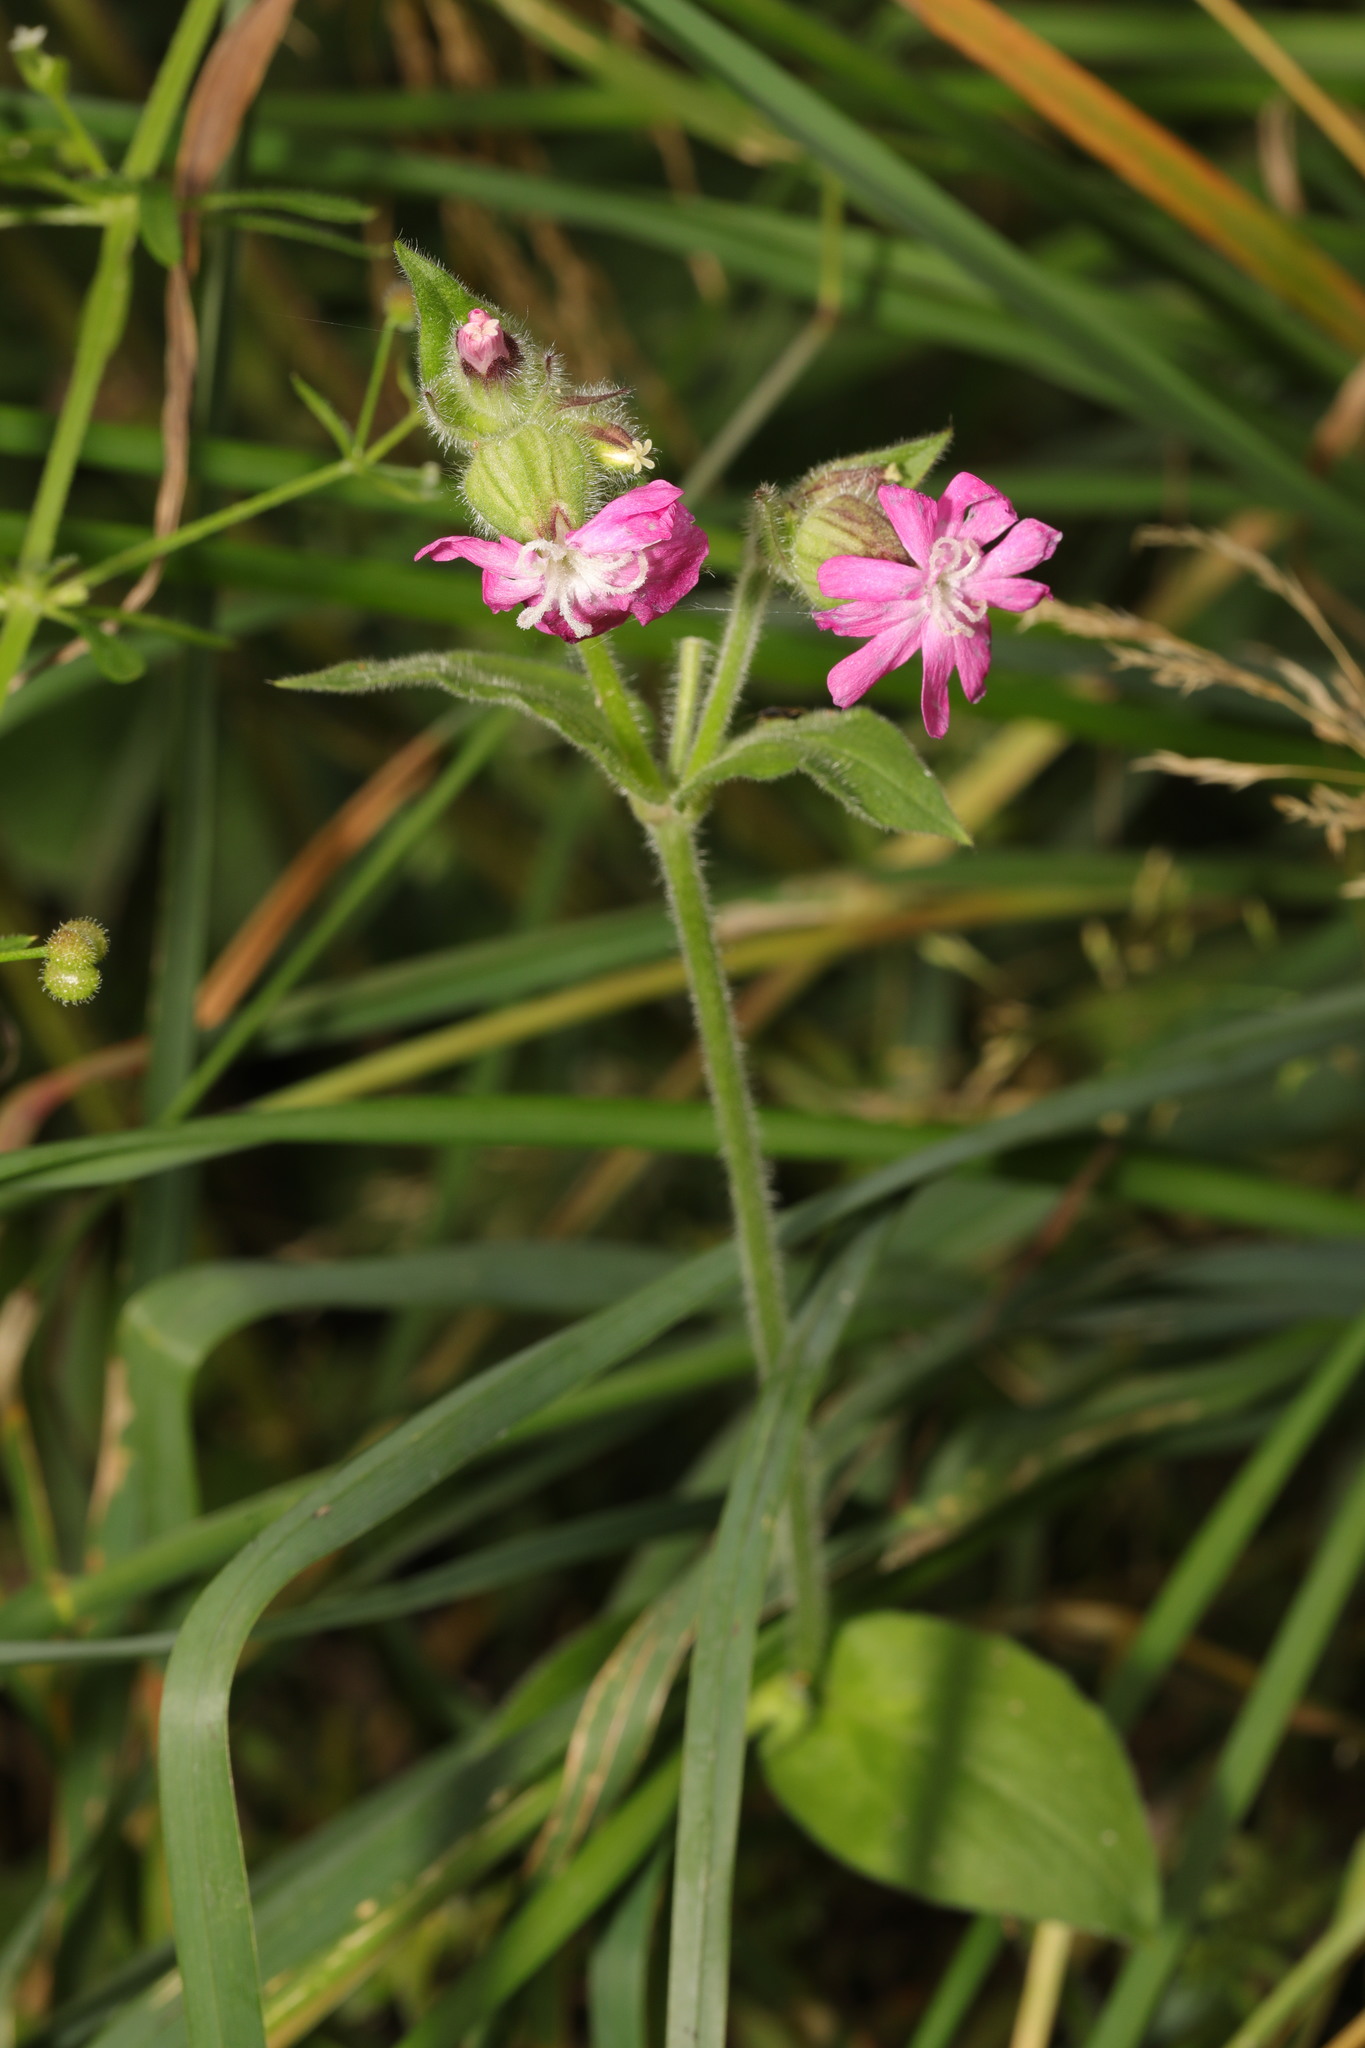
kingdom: Plantae
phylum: Tracheophyta
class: Magnoliopsida
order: Caryophyllales
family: Caryophyllaceae
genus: Silene
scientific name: Silene dioica
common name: Red campion
